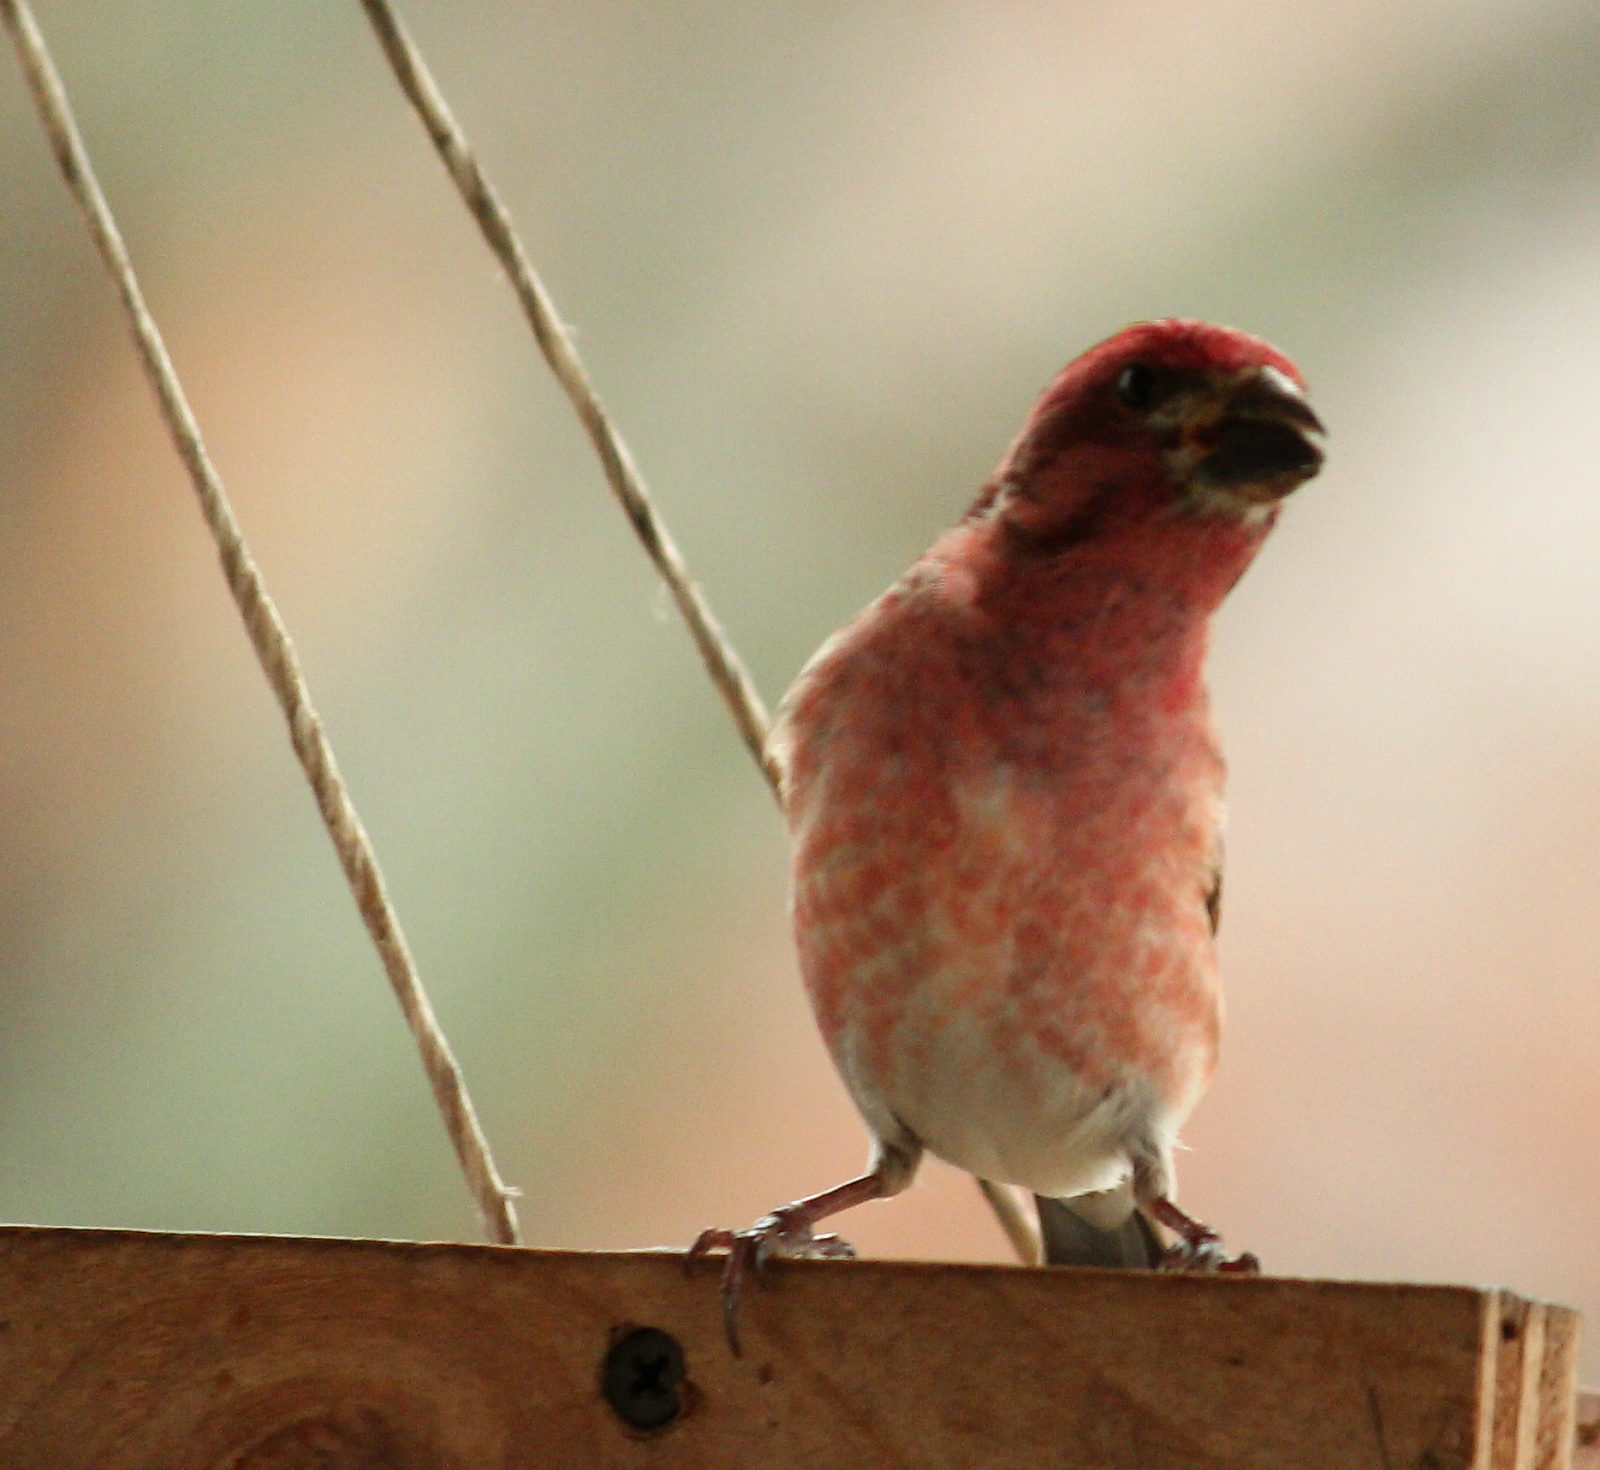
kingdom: Animalia
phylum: Chordata
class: Aves
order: Passeriformes
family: Fringillidae
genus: Haemorhous
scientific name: Haemorhous purpureus
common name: Purple finch
